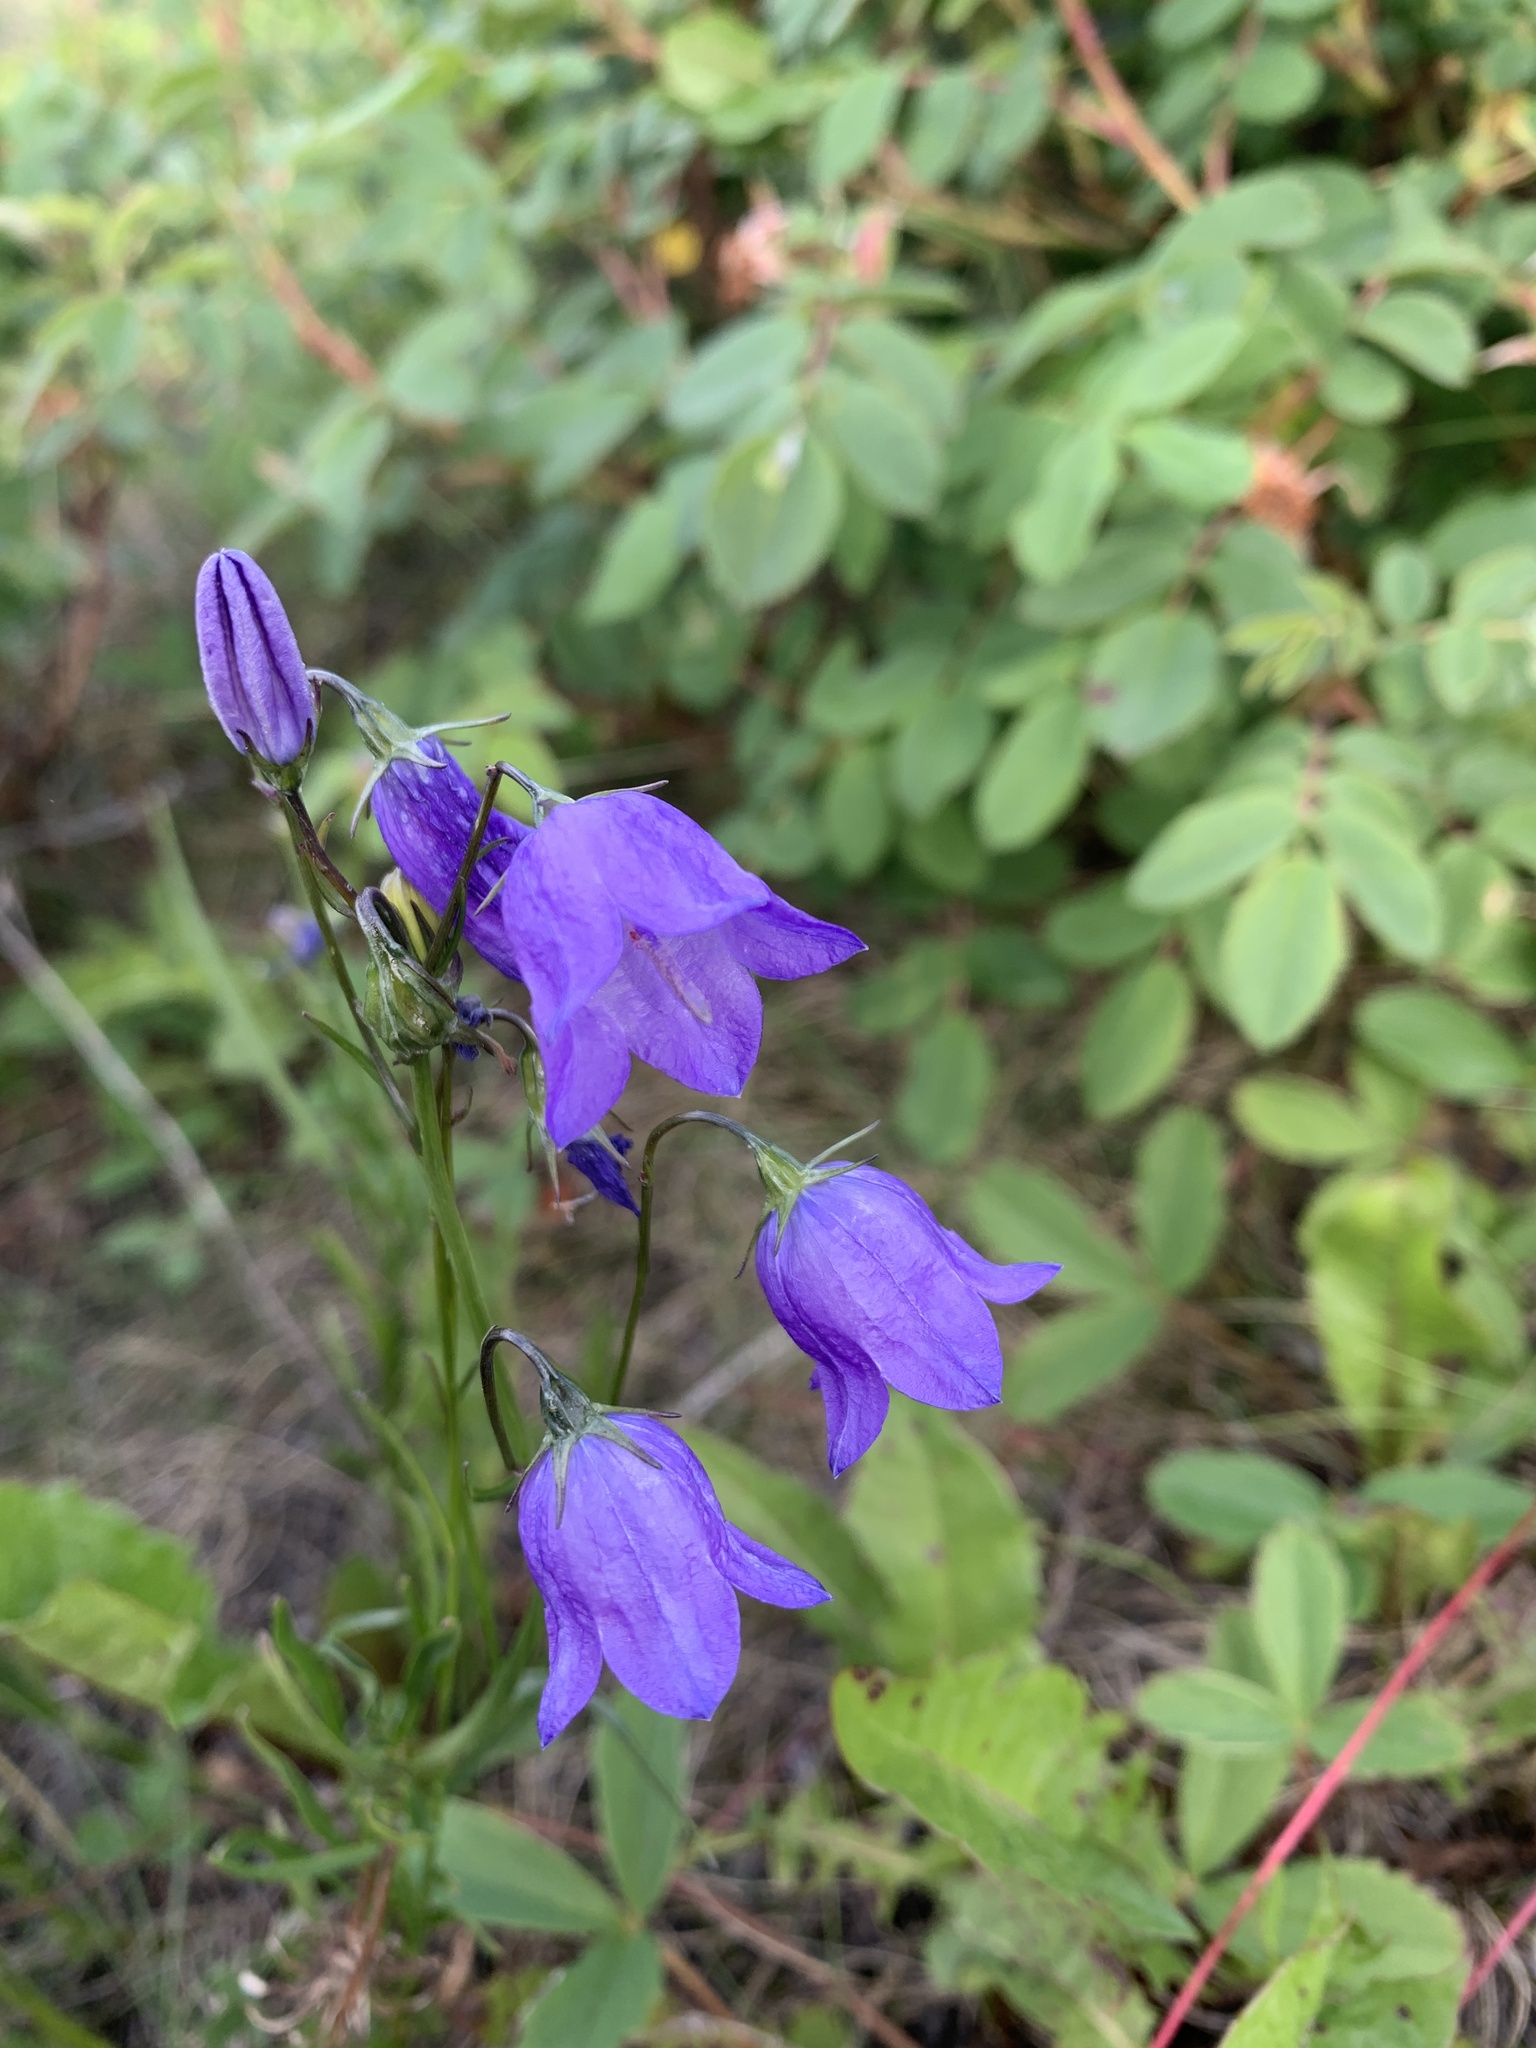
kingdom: Plantae
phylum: Tracheophyta
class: Magnoliopsida
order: Asterales
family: Campanulaceae
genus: Campanula
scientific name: Campanula alaskana
